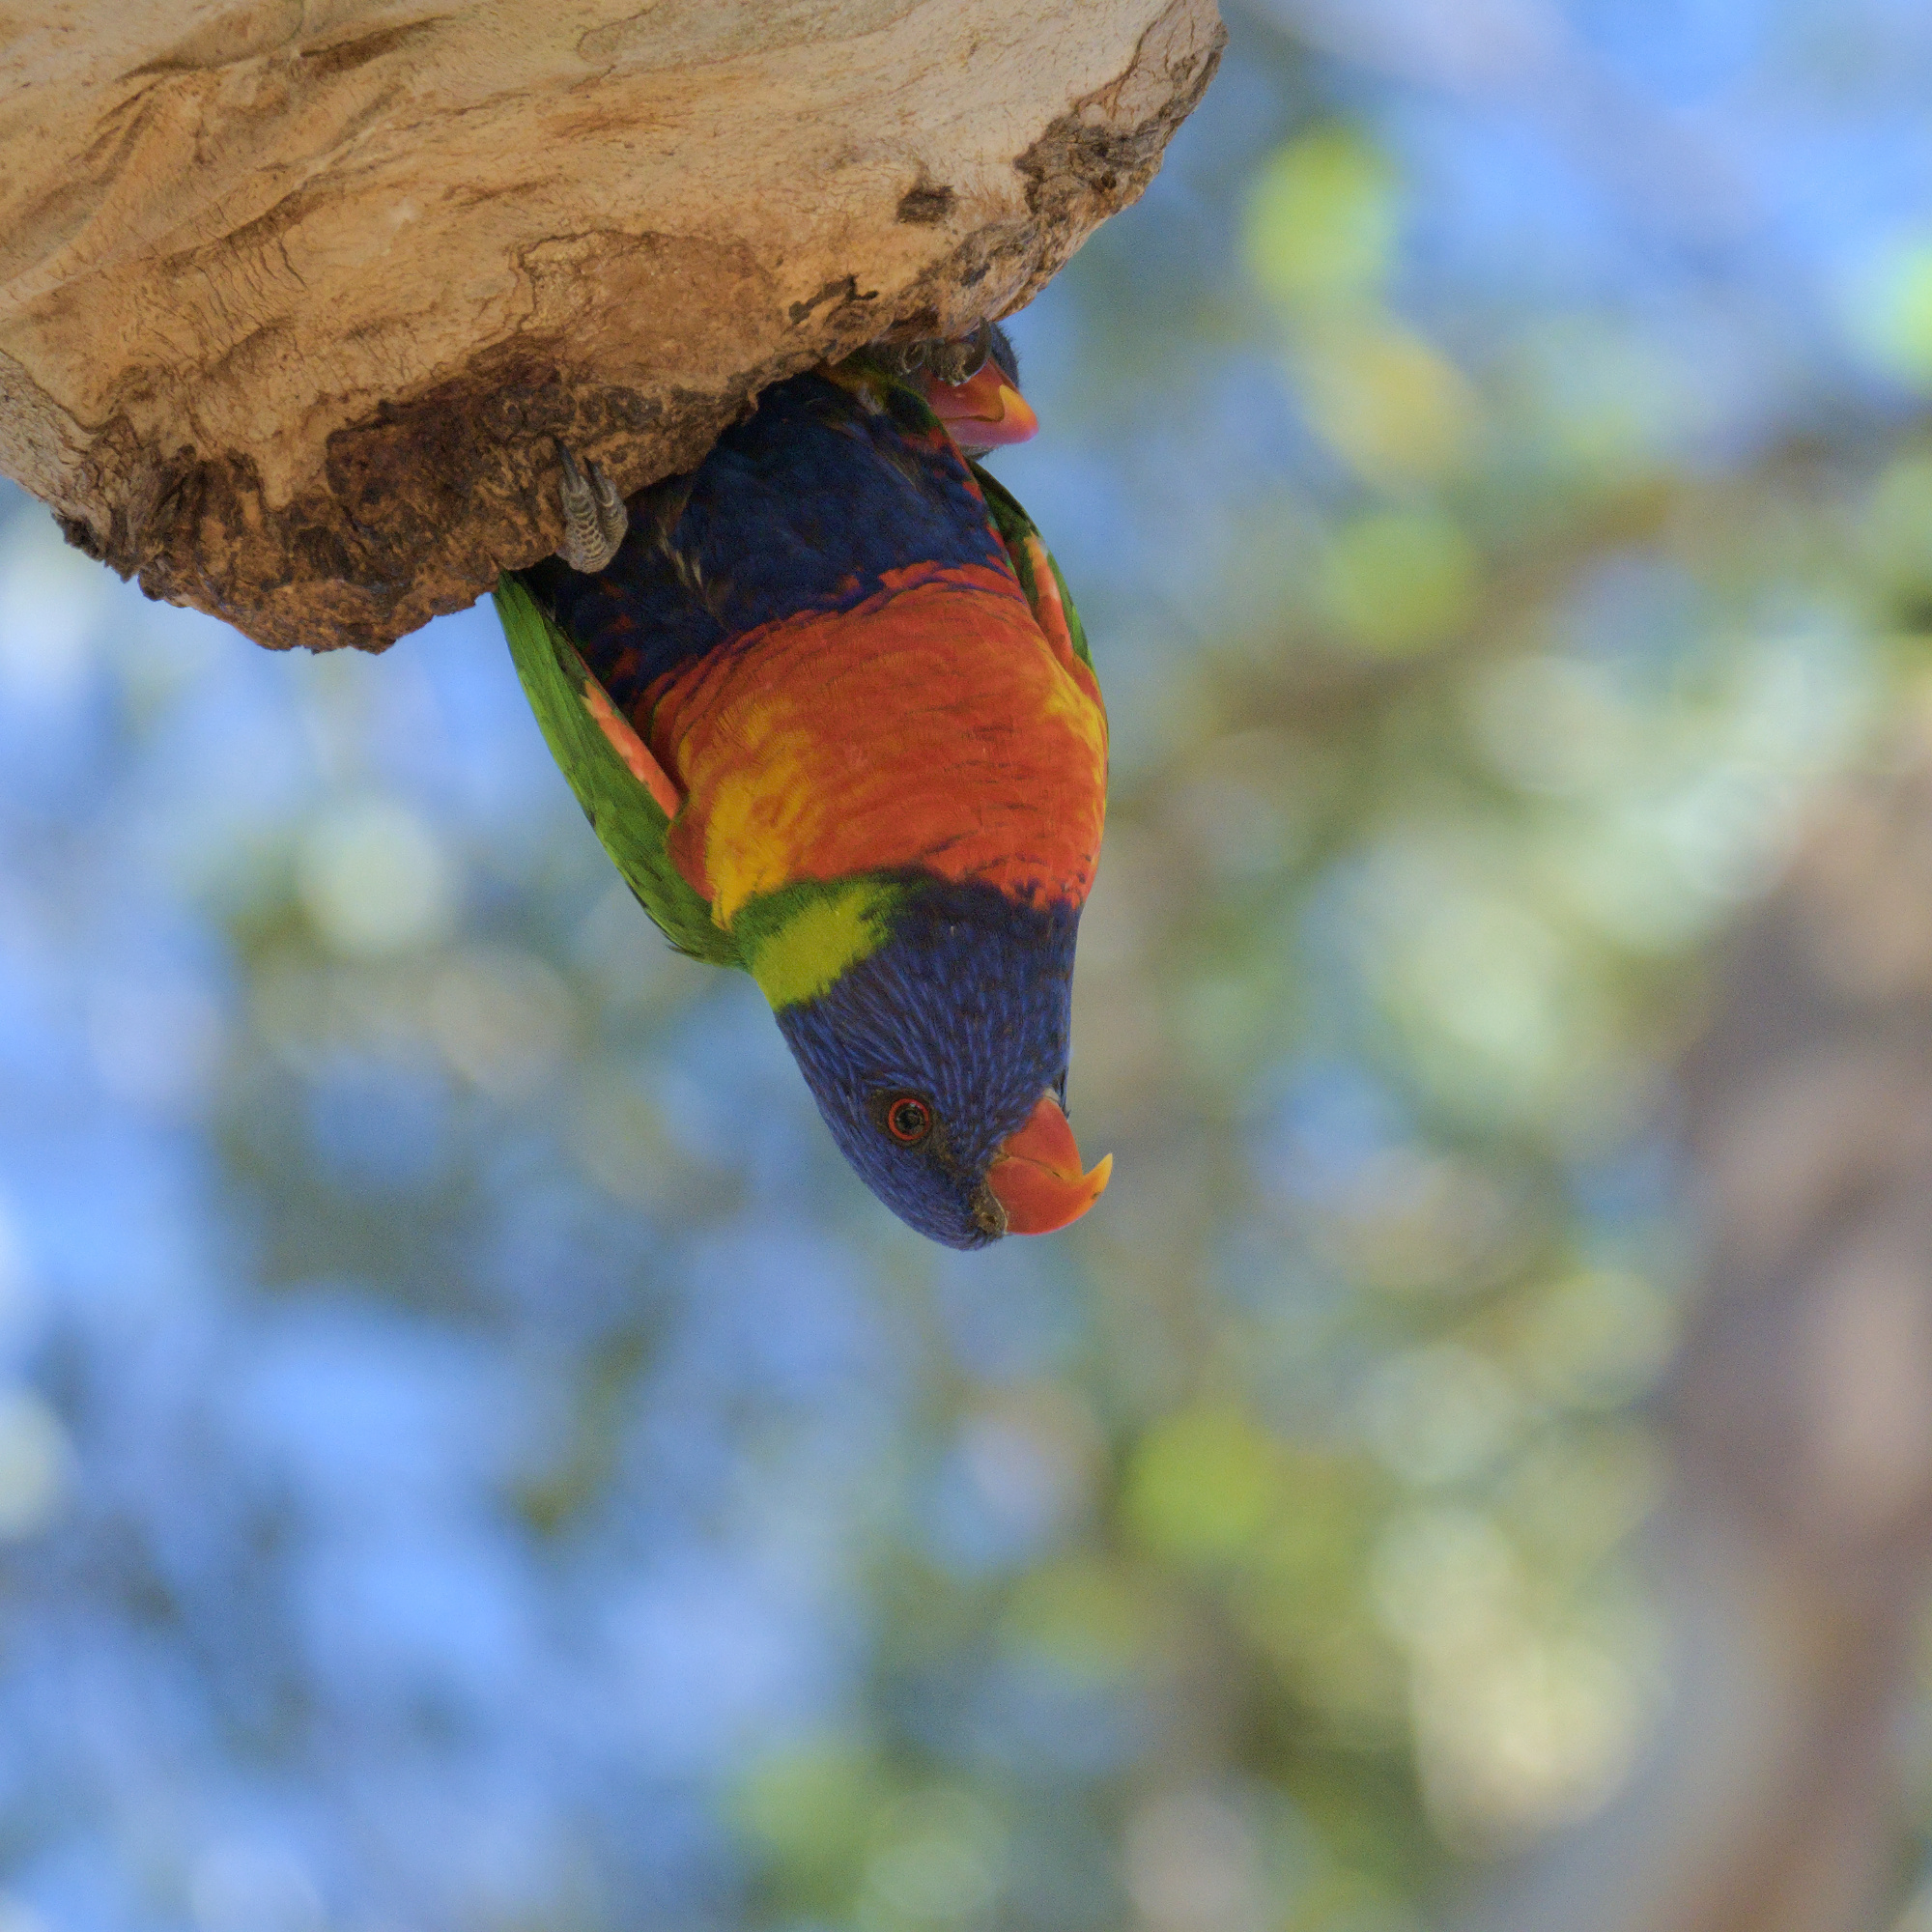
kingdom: Animalia
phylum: Chordata
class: Aves
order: Psittaciformes
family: Psittacidae
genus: Trichoglossus
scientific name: Trichoglossus haematodus
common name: Coconut lorikeet
